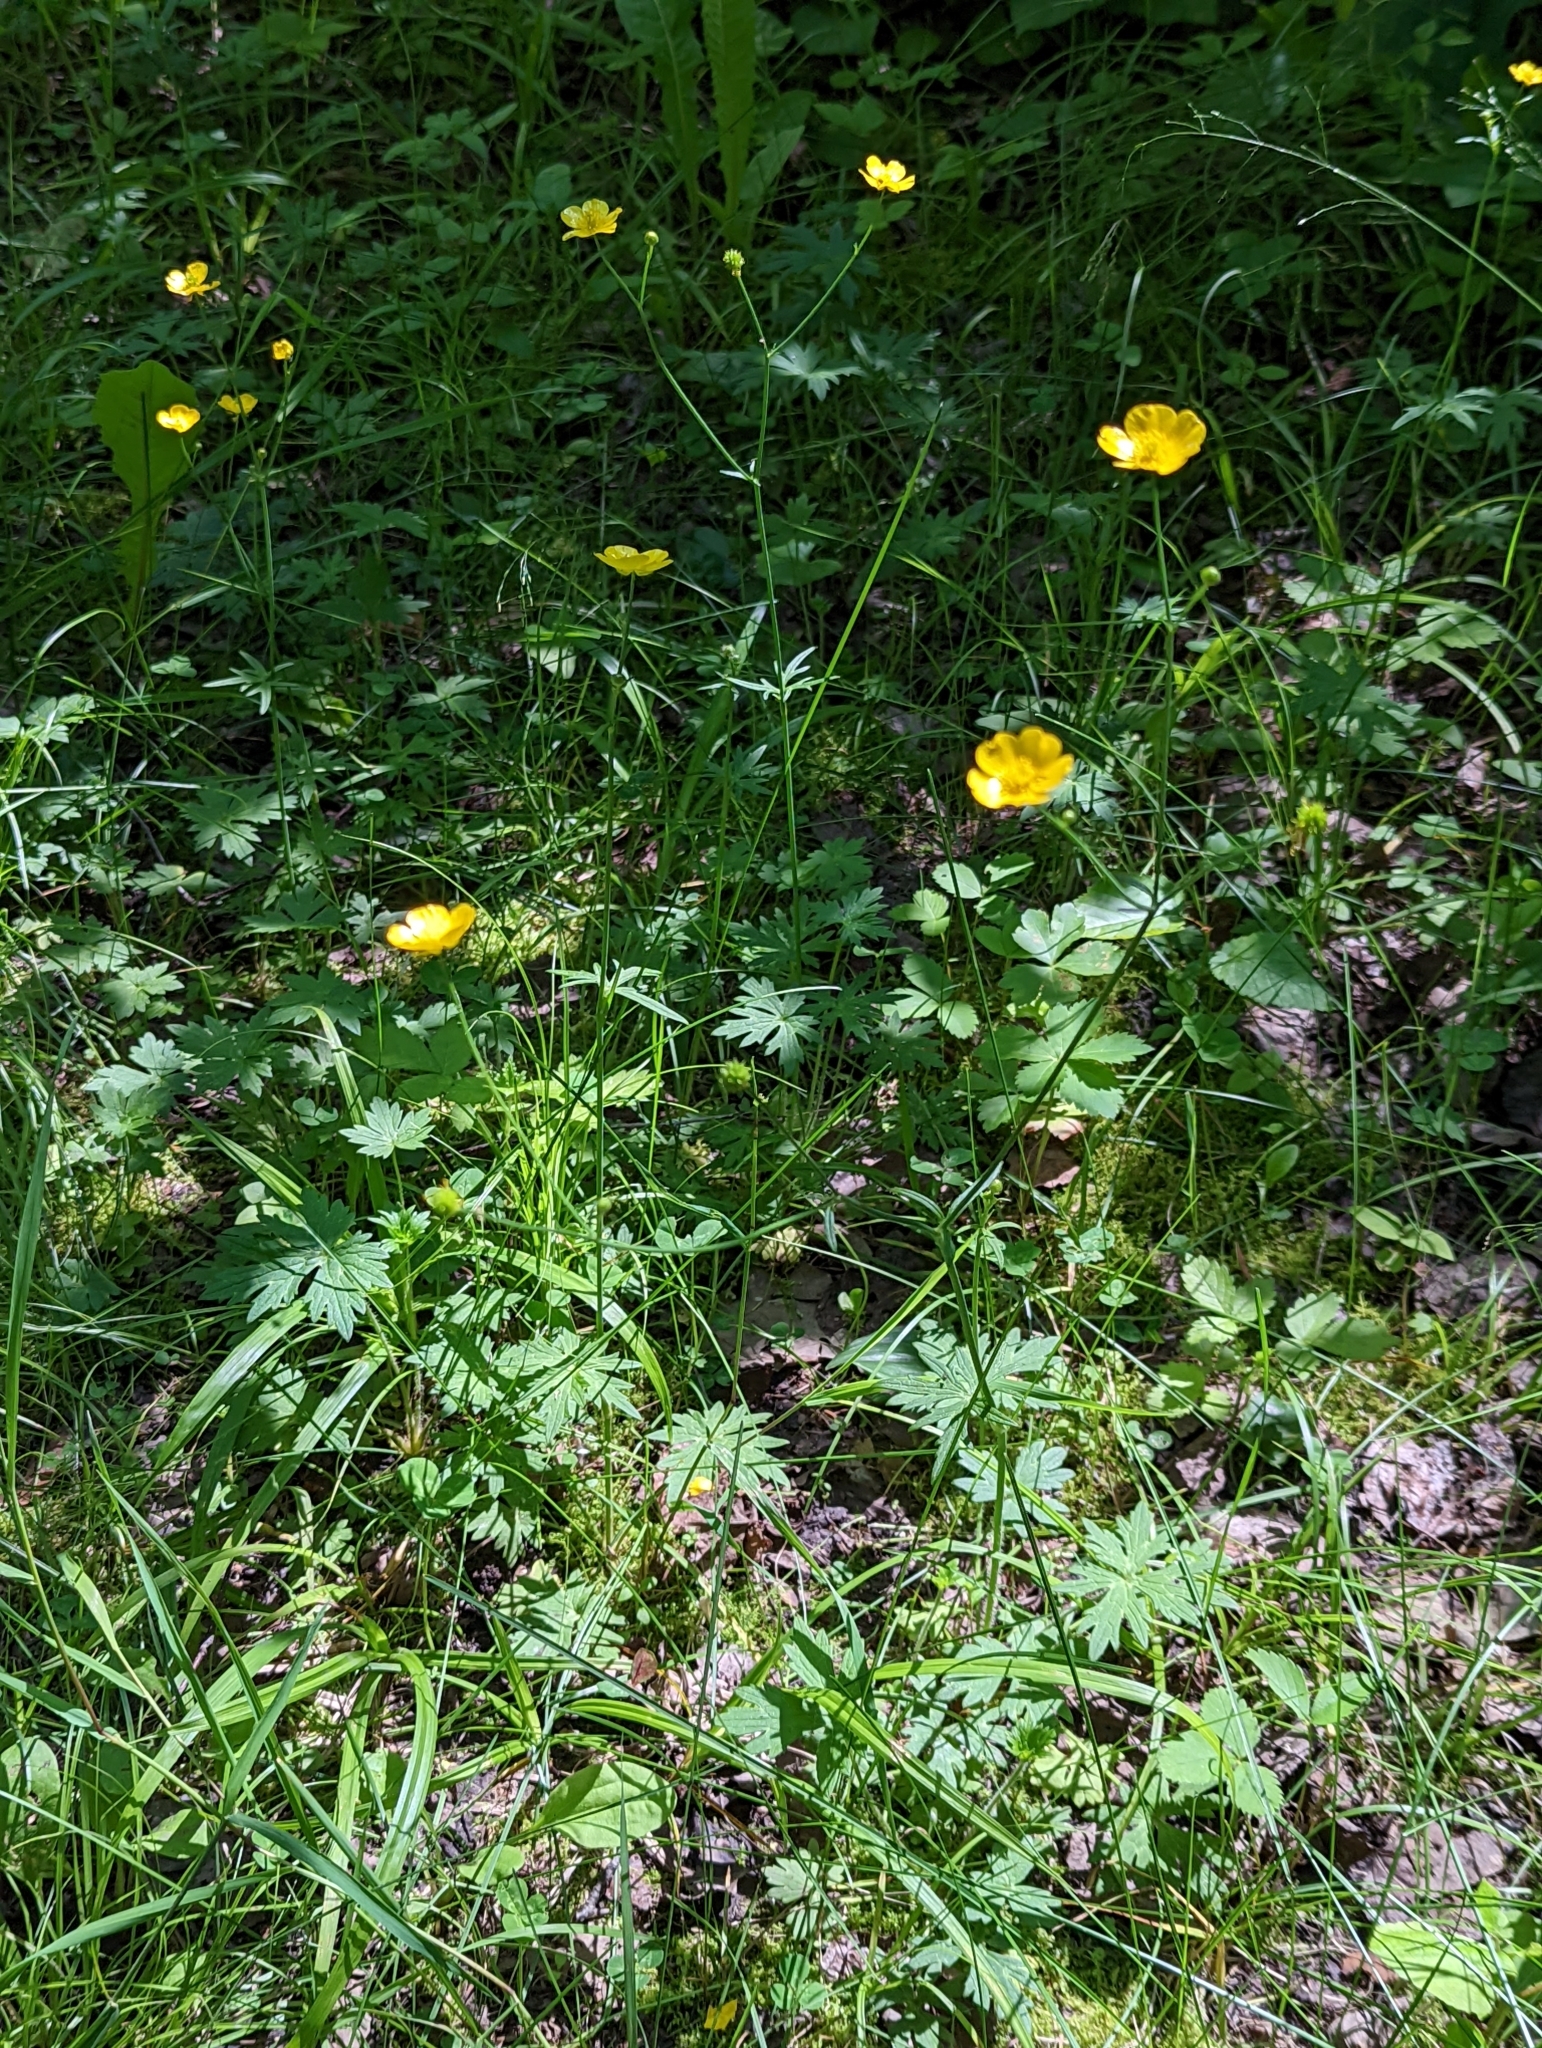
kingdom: Plantae
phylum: Tracheophyta
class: Magnoliopsida
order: Ranunculales
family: Ranunculaceae
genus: Ranunculus
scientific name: Ranunculus acris
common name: Meadow buttercup
